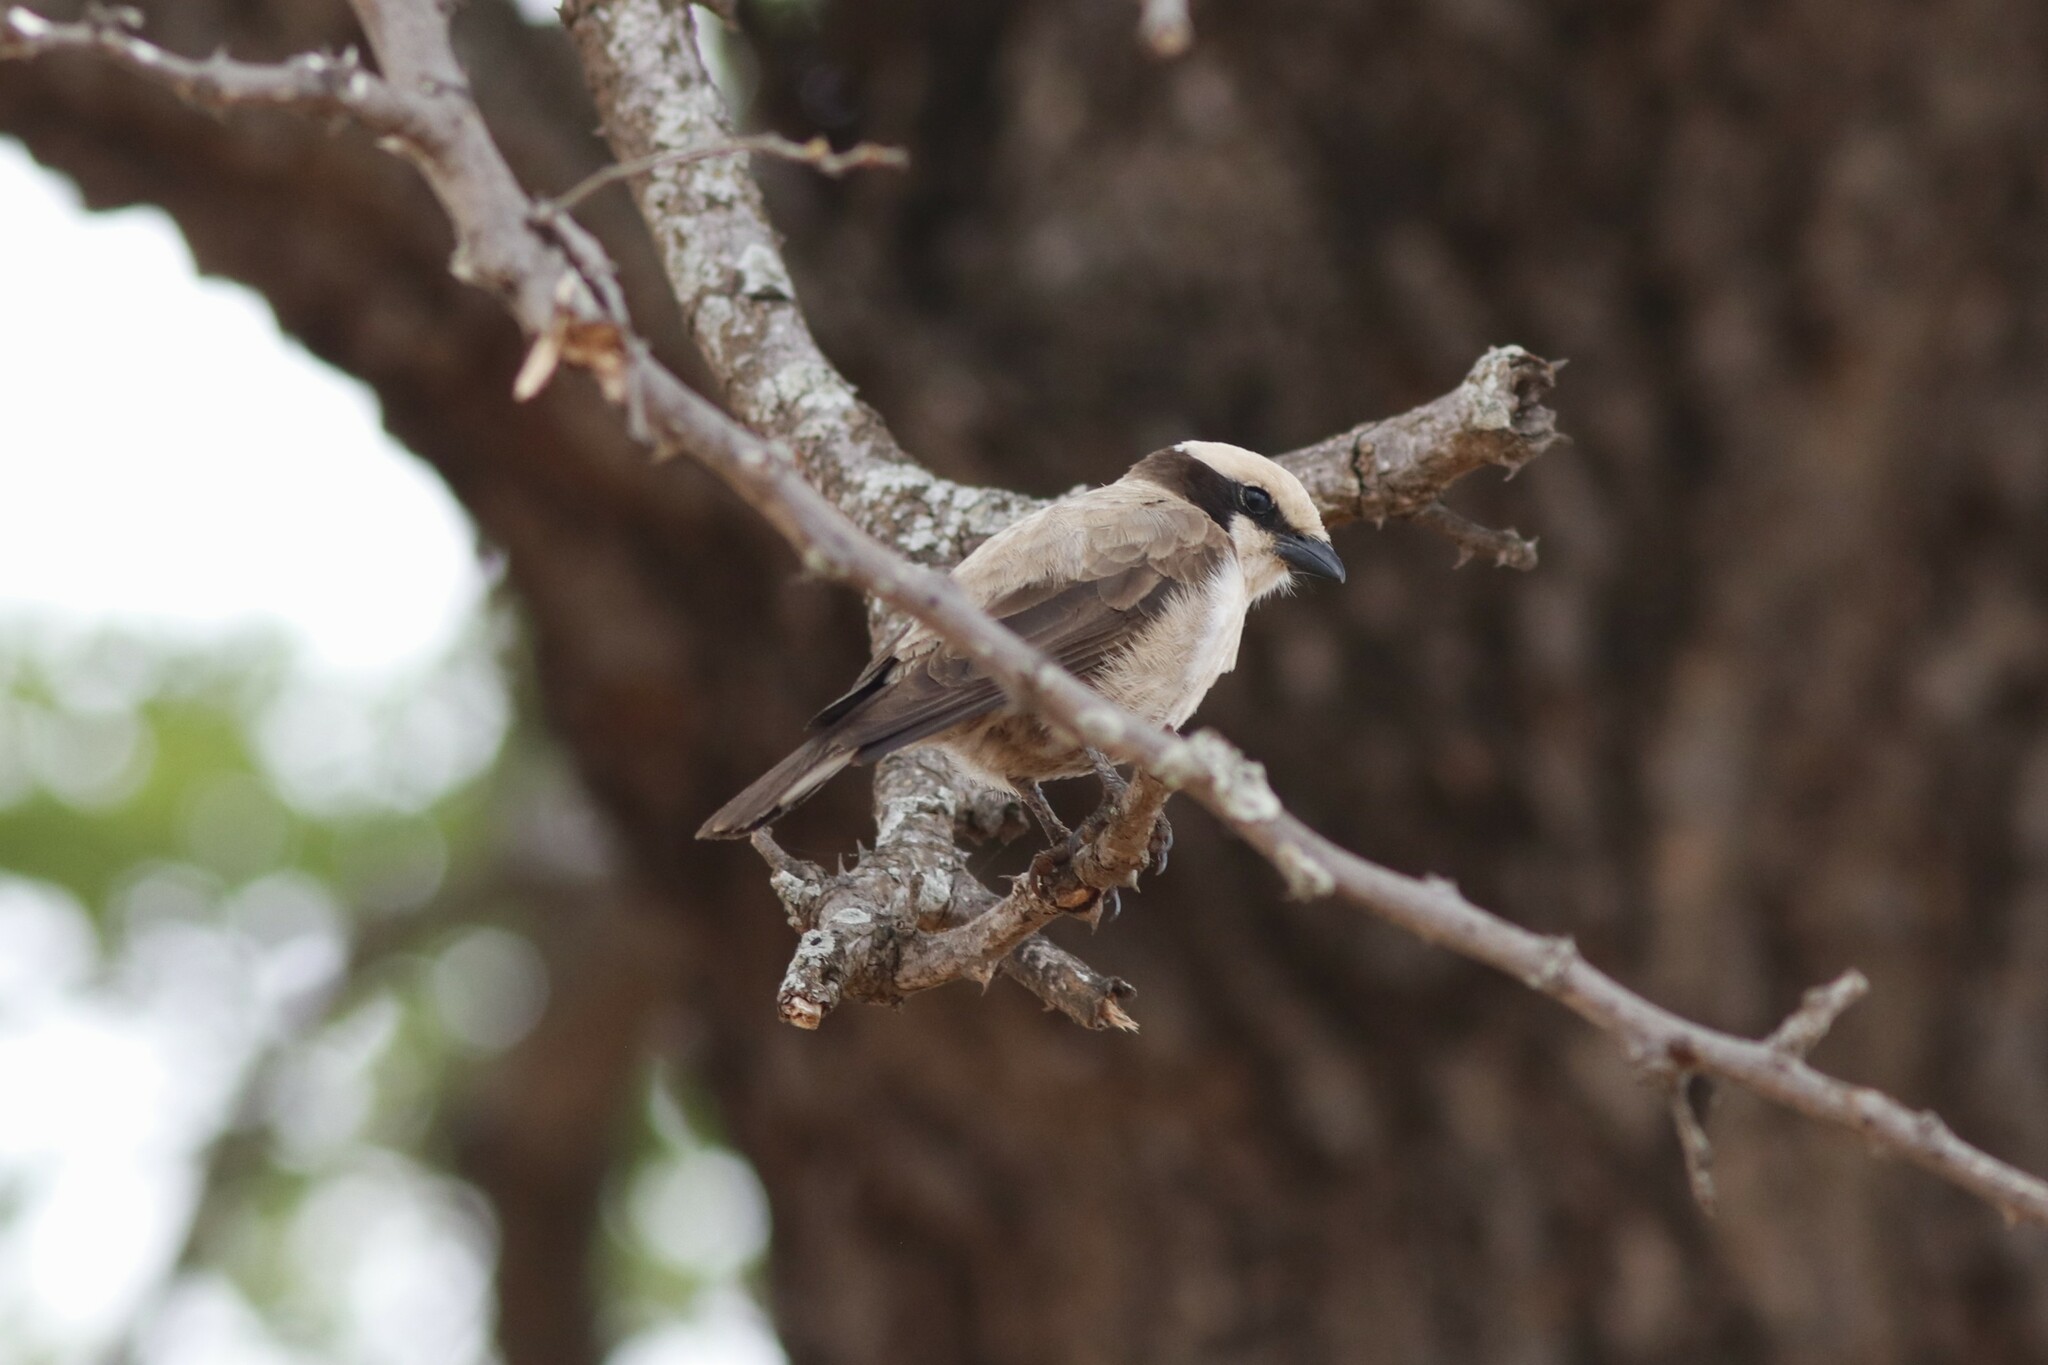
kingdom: Animalia
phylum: Chordata
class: Aves
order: Passeriformes
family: Laniidae
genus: Eurocephalus
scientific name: Eurocephalus anguitimens
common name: Southern white-crowned shrike
